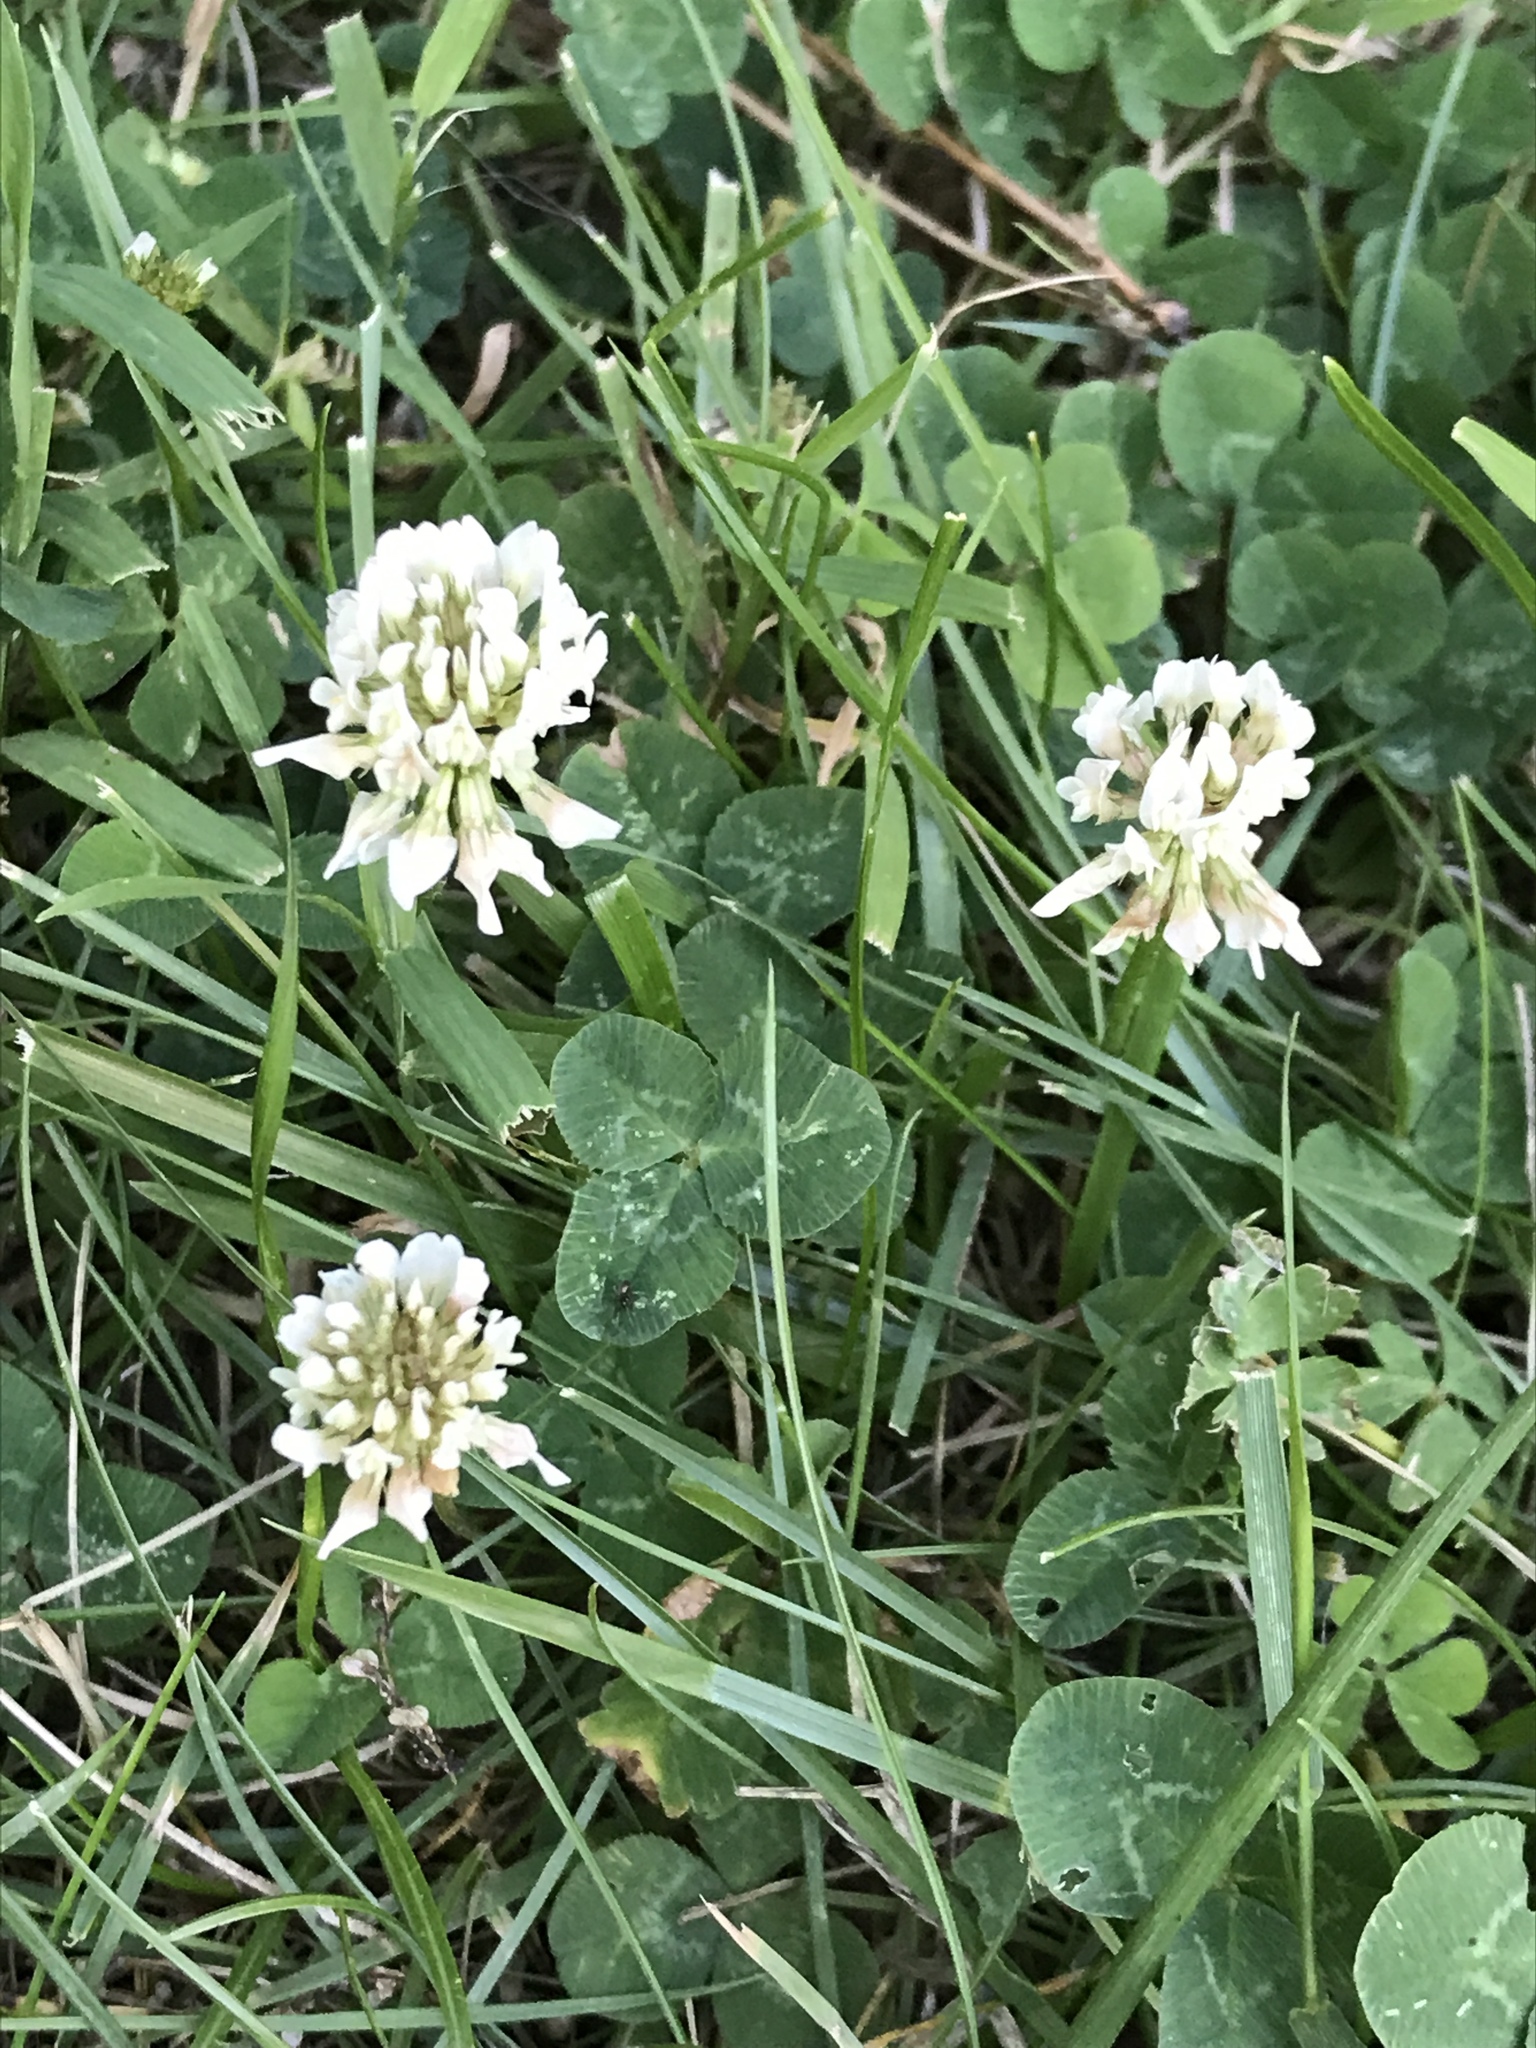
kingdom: Plantae
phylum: Tracheophyta
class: Magnoliopsida
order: Fabales
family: Fabaceae
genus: Trifolium
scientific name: Trifolium repens
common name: White clover
